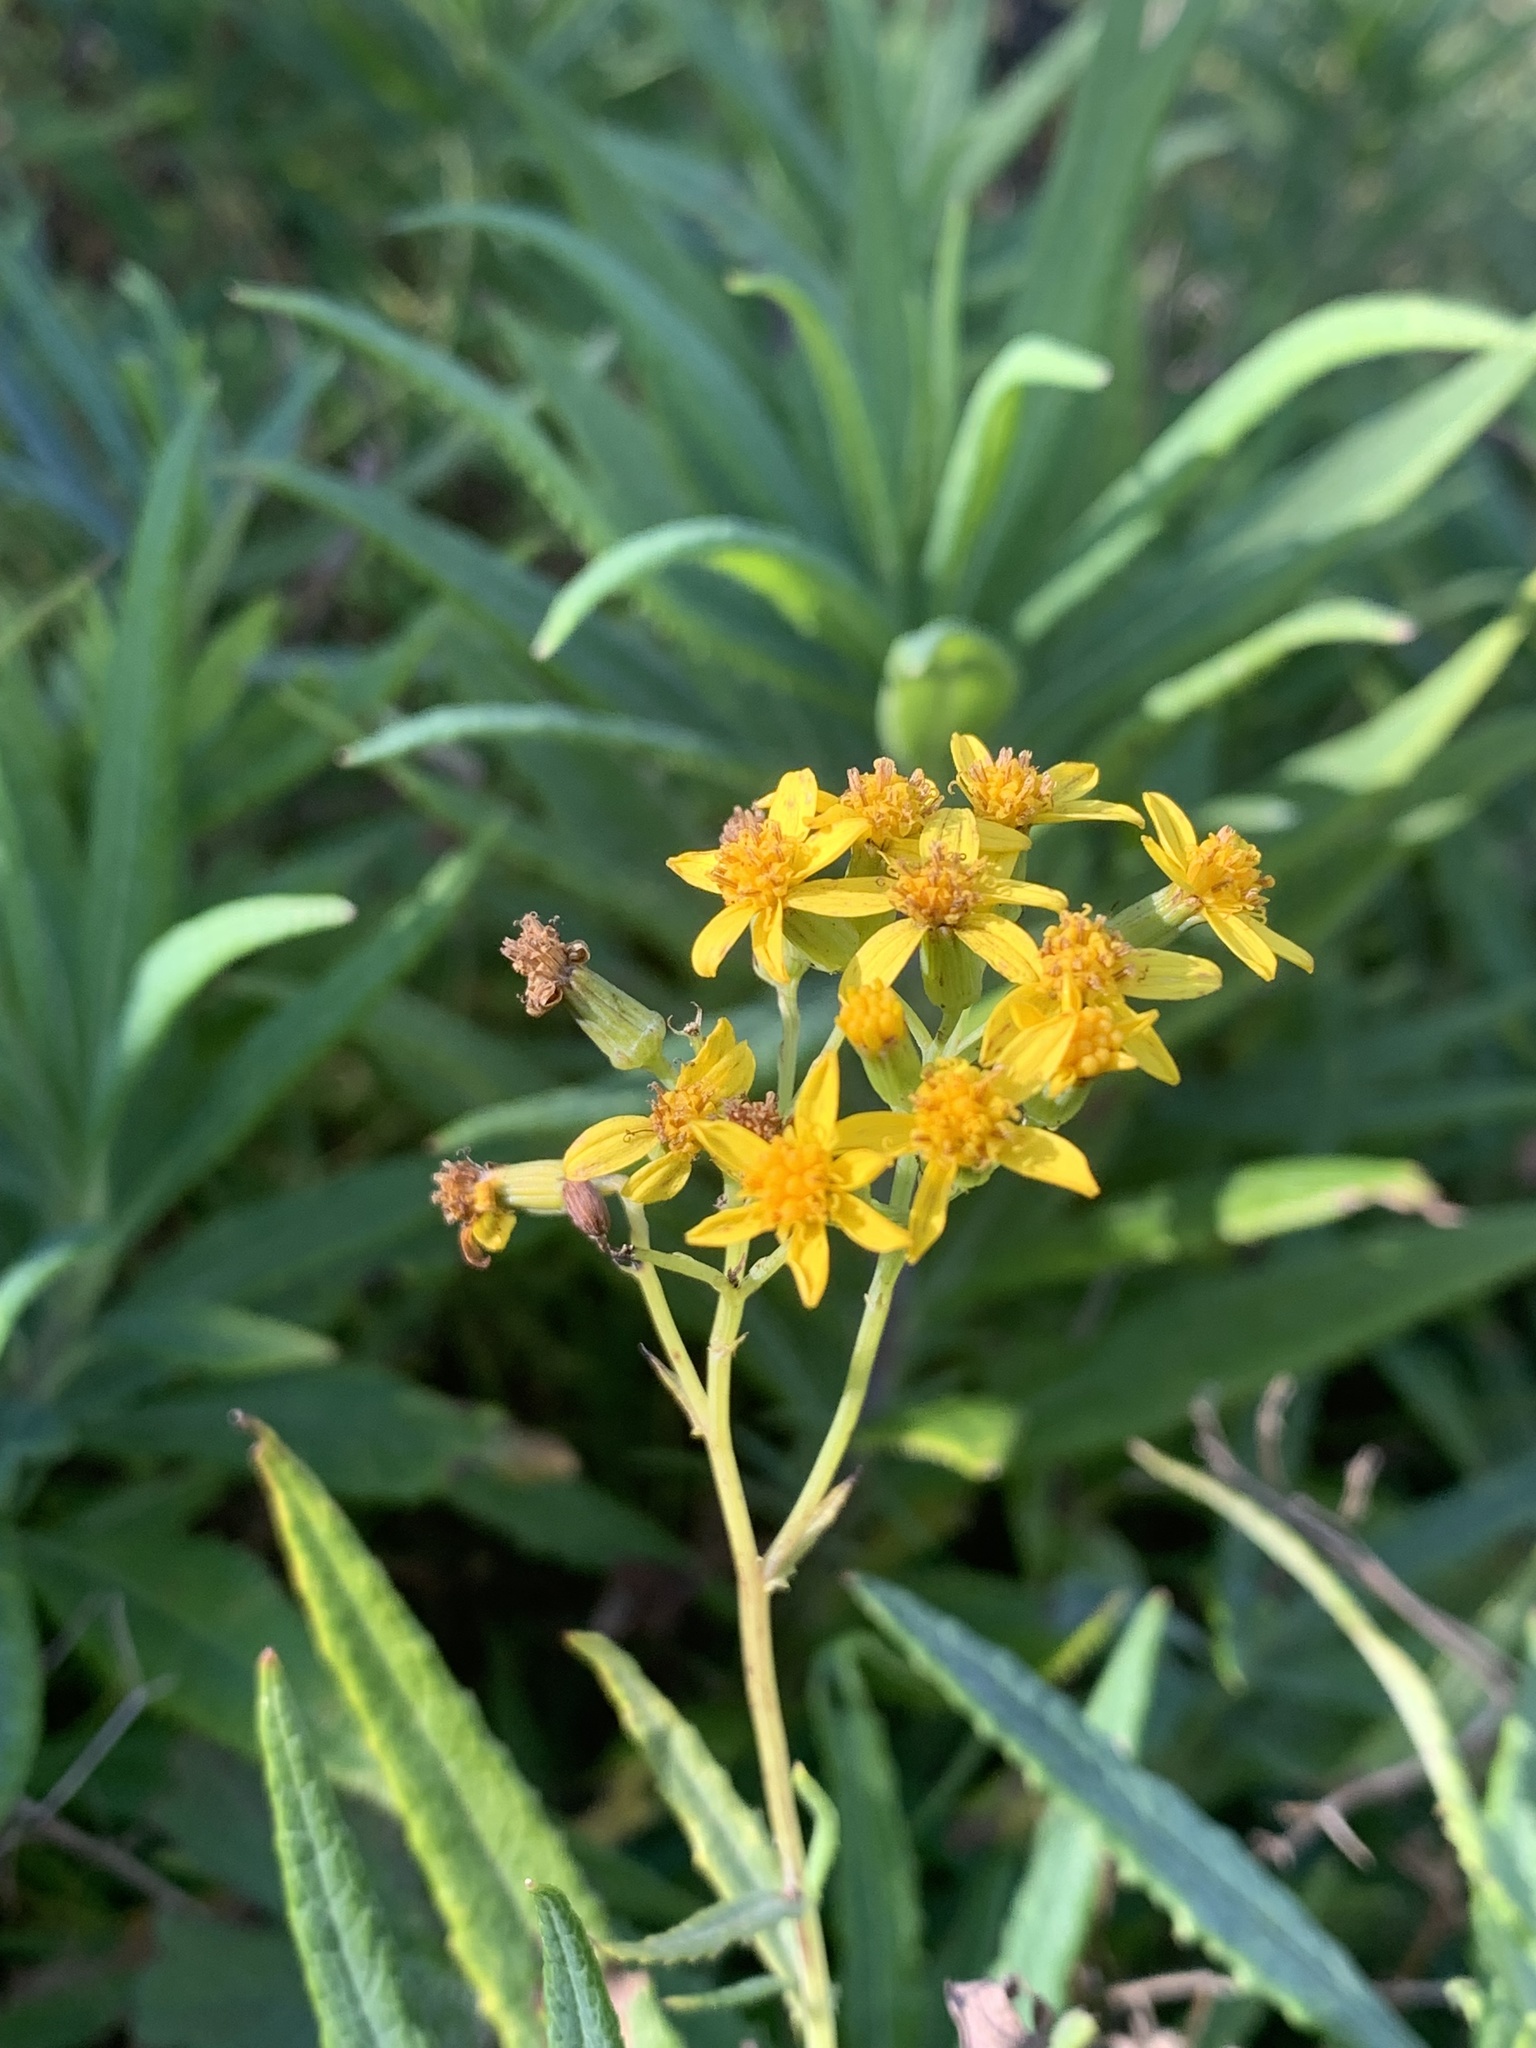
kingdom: Plantae
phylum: Tracheophyta
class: Magnoliopsida
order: Asterales
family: Asteraceae
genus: Senecio
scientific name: Senecio linearifolius
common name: Fireweed groundsel
